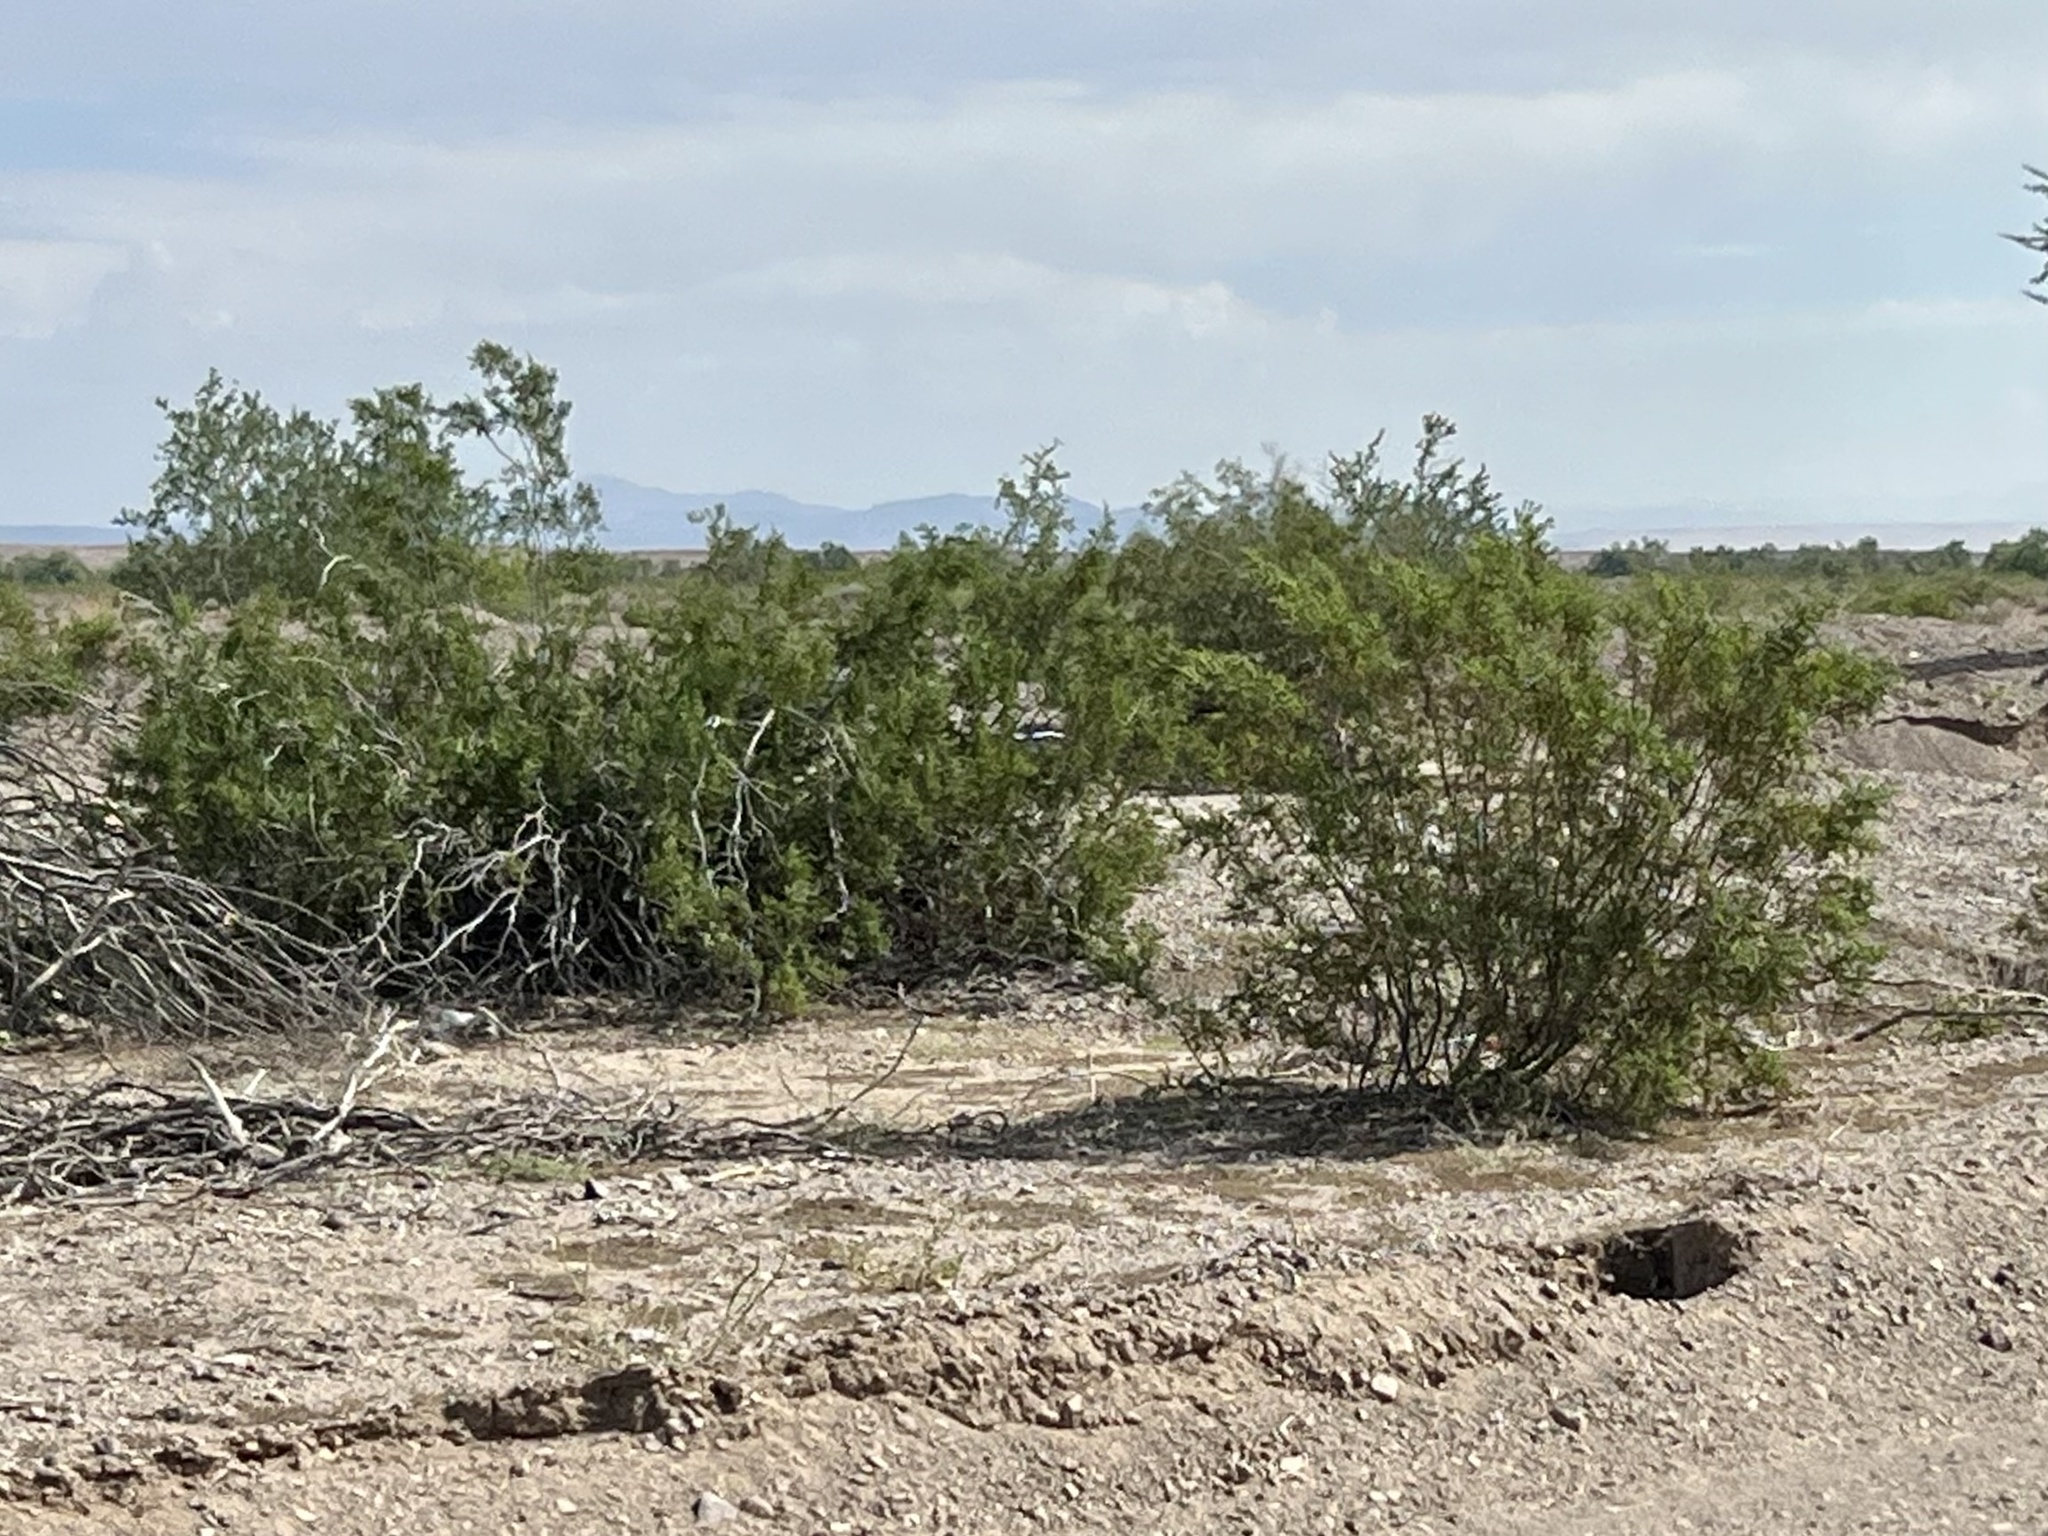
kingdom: Plantae
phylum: Tracheophyta
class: Magnoliopsida
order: Zygophyllales
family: Zygophyllaceae
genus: Larrea
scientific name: Larrea tridentata
